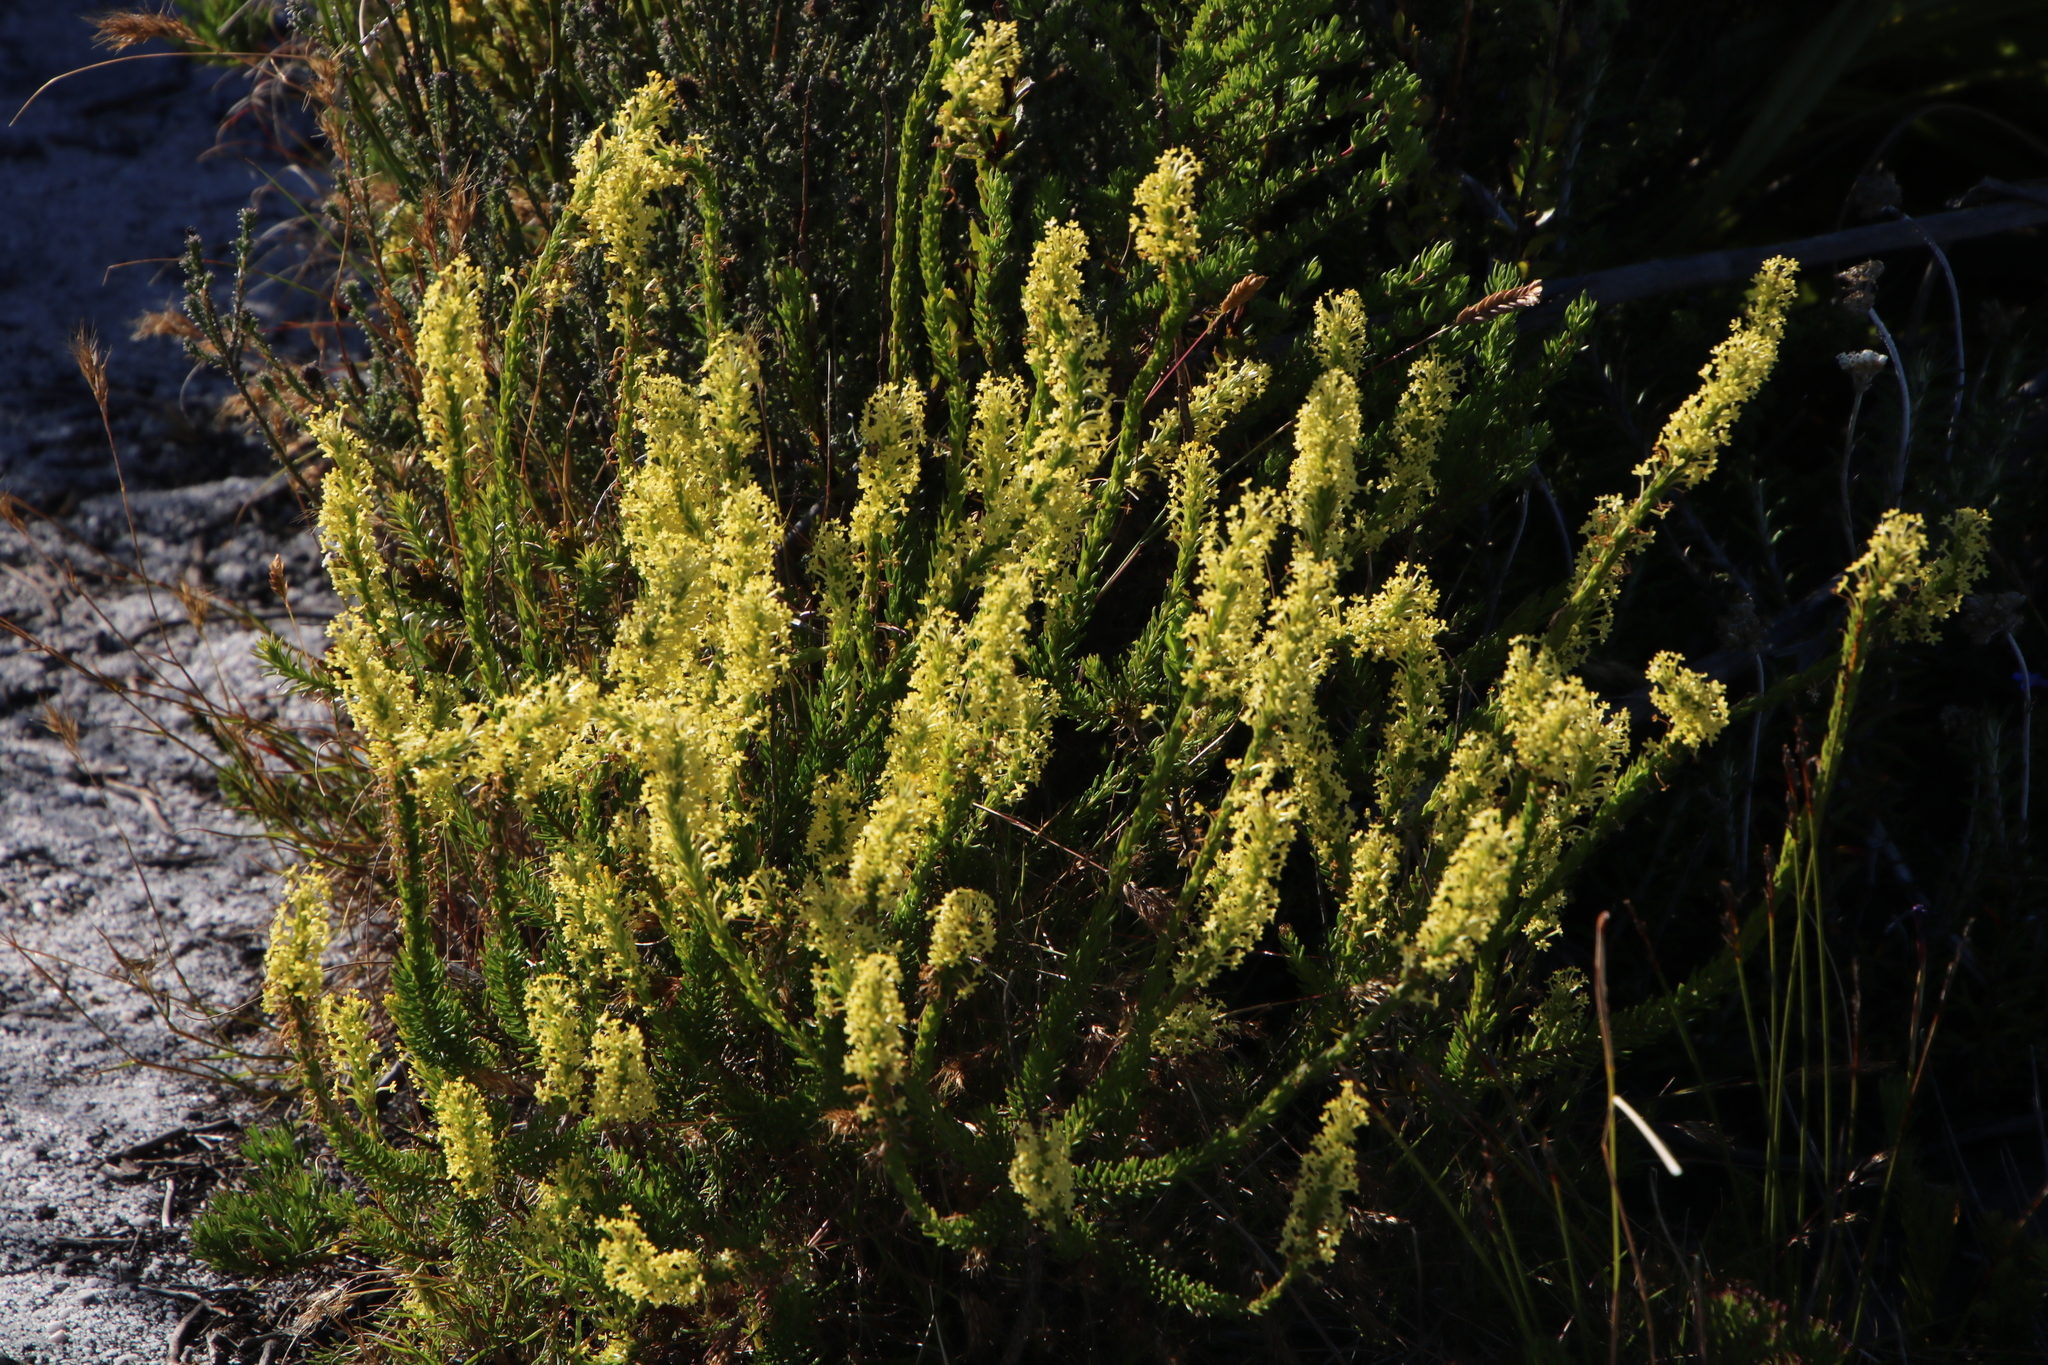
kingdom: Plantae
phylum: Tracheophyta
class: Magnoliopsida
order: Lamiales
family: Scrophulariaceae
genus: Microdon
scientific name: Microdon dubius
